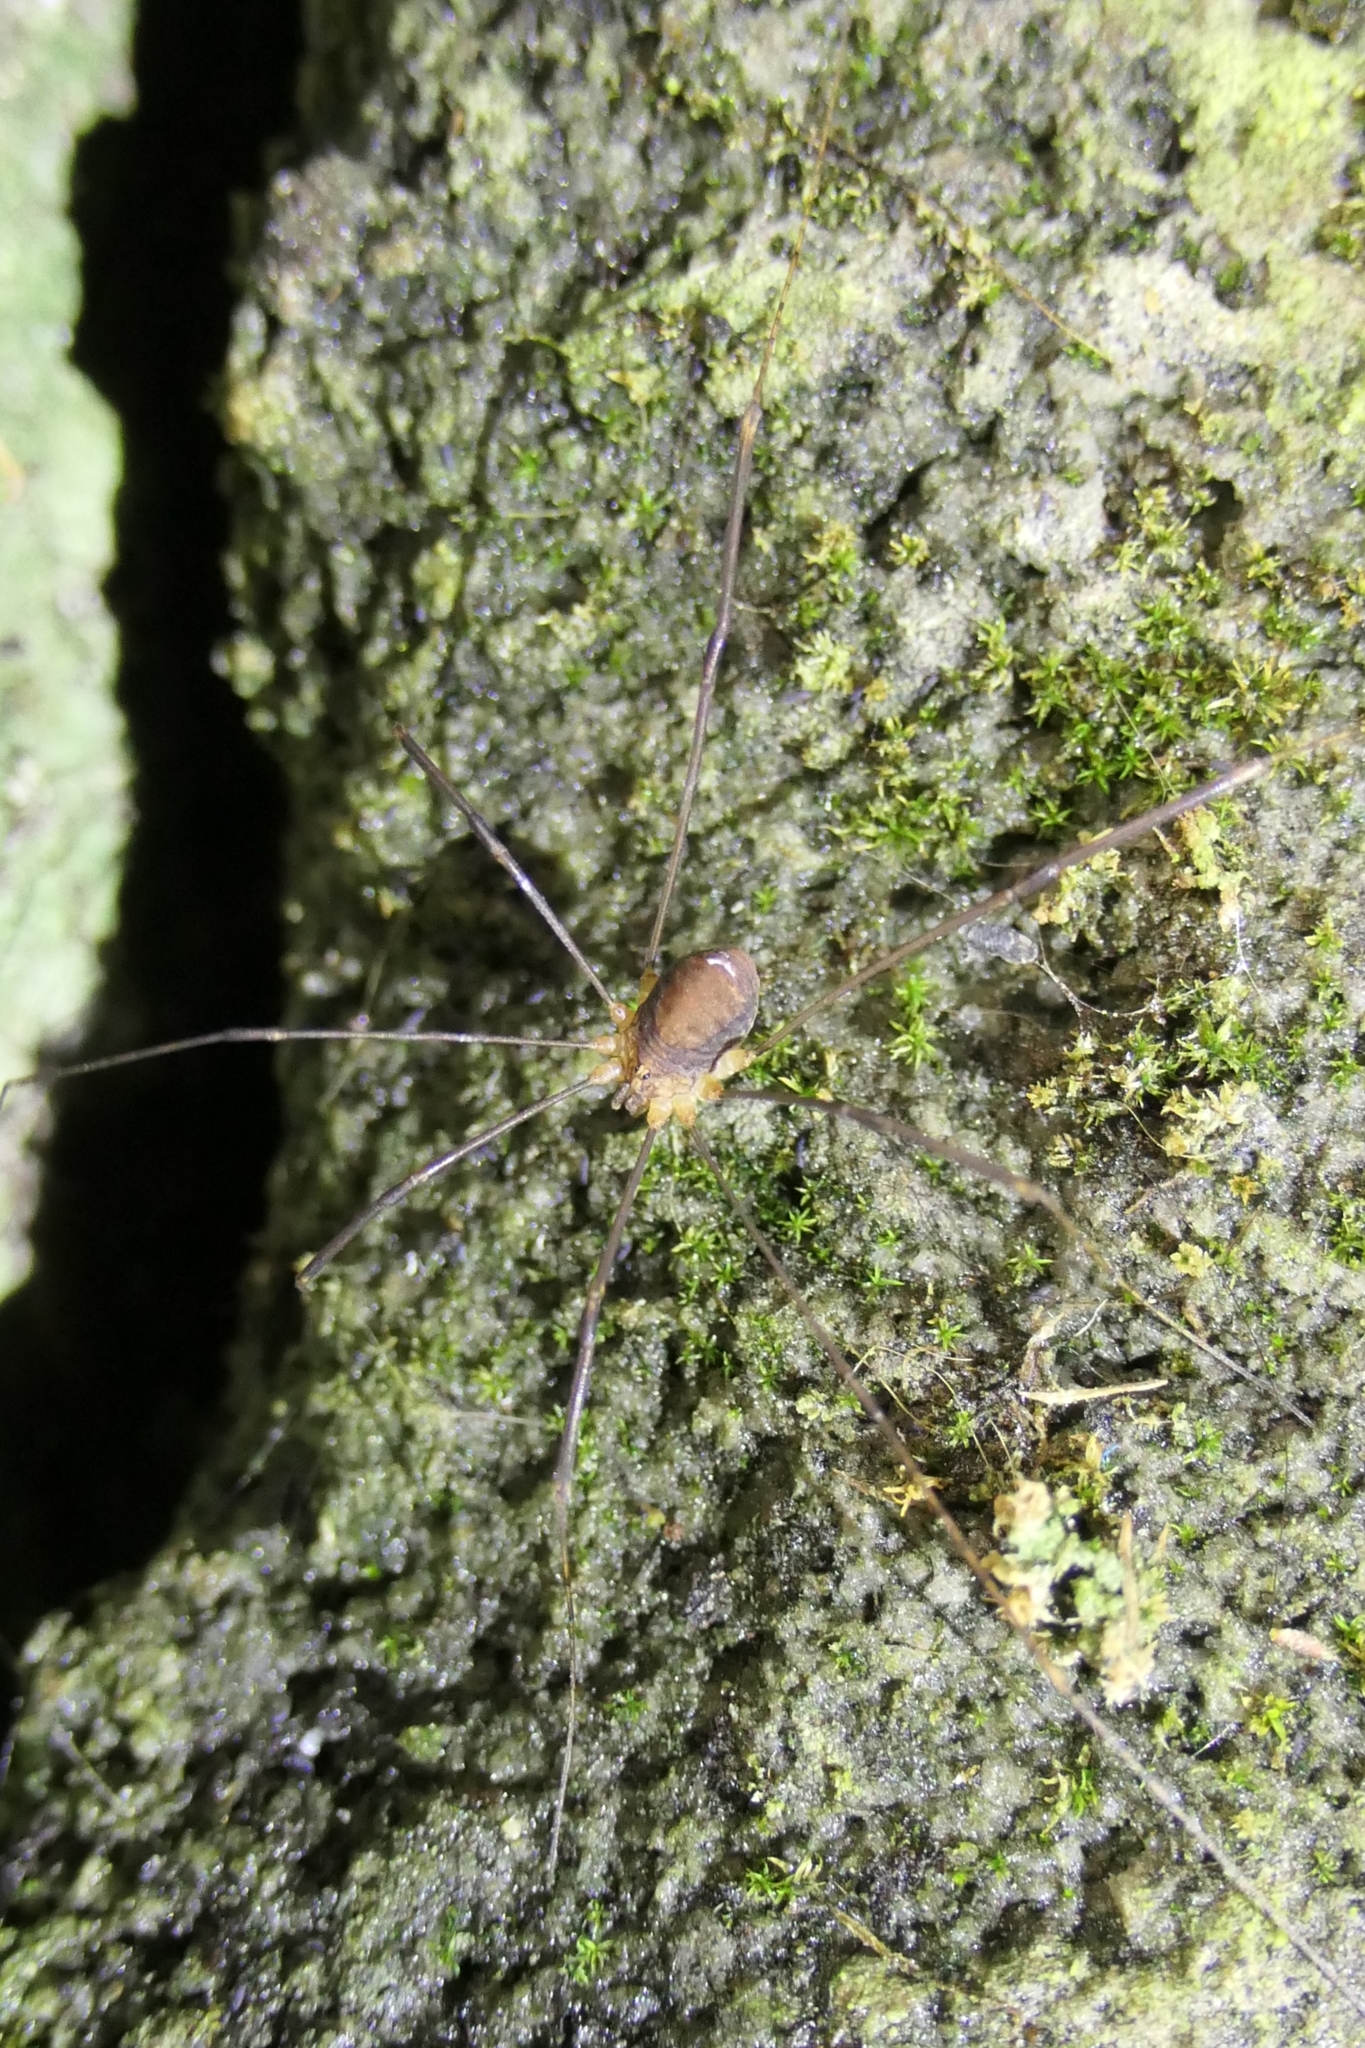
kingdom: Animalia
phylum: Arthropoda
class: Arachnida
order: Opiliones
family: Sclerosomatidae
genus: Nelima
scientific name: Nelima doriae
